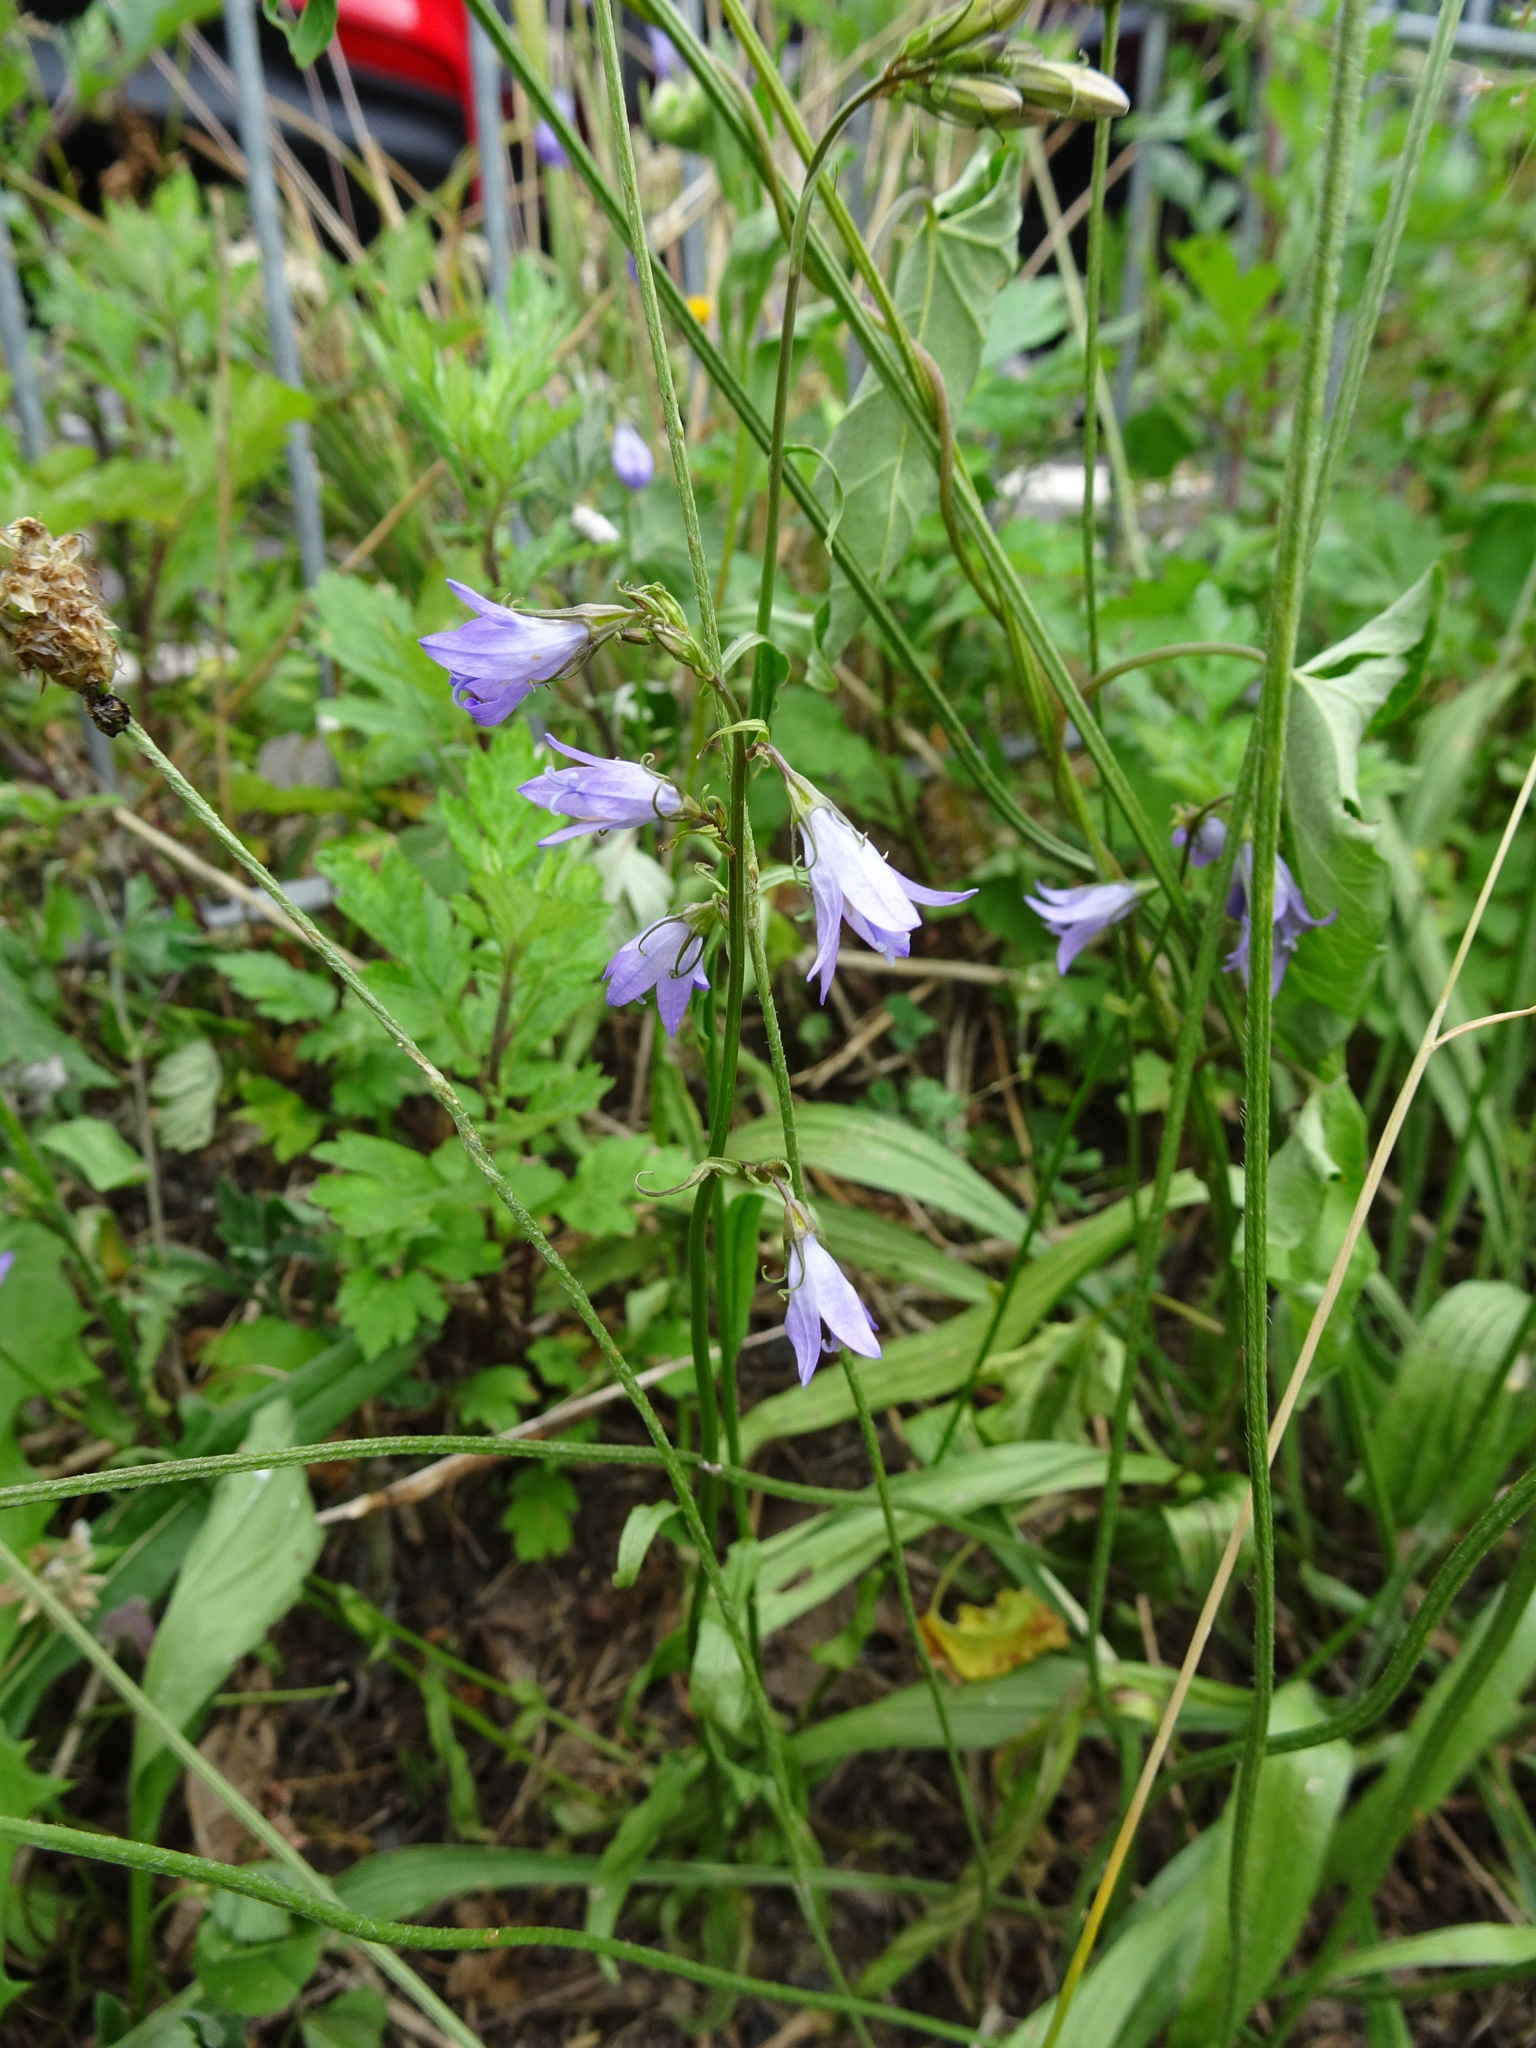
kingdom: Plantae
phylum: Tracheophyta
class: Magnoliopsida
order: Asterales
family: Campanulaceae
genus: Campanula
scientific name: Campanula rapunculus
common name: Rampion bellflower
